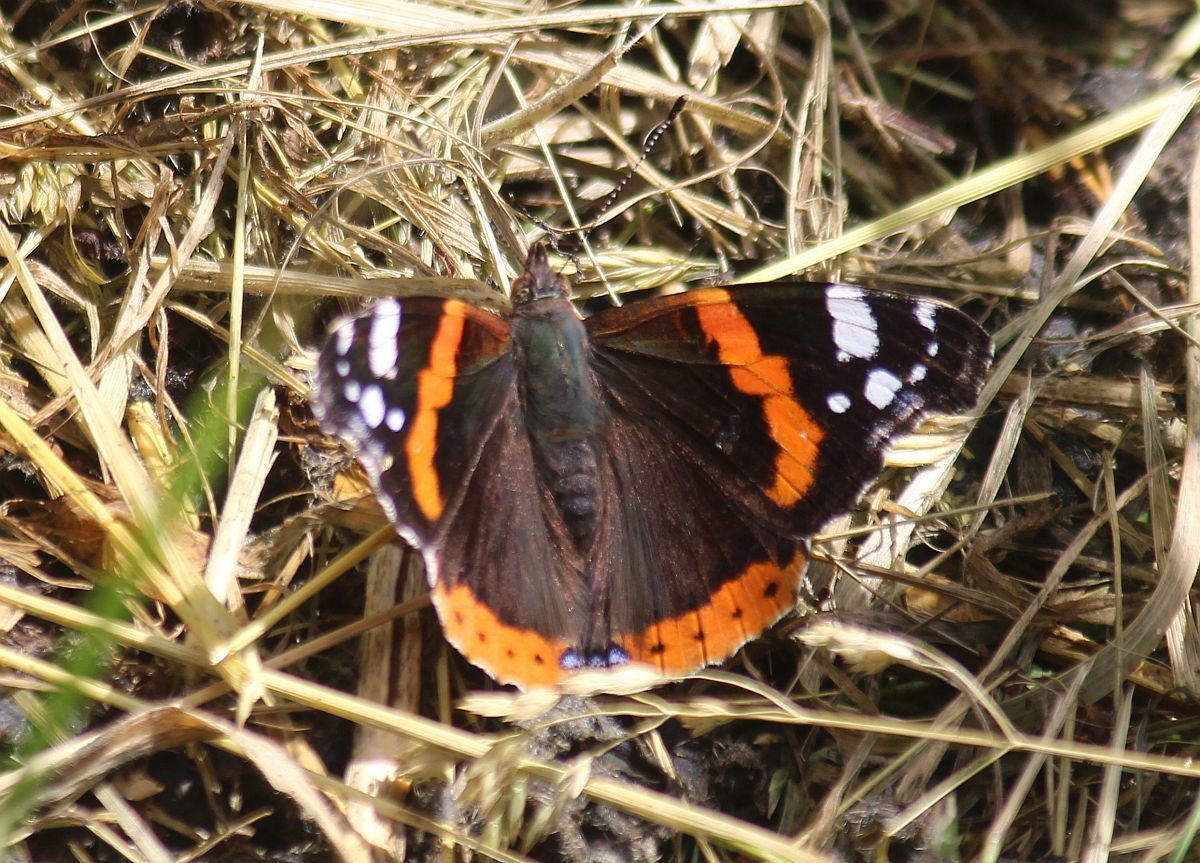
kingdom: Animalia
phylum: Arthropoda
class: Insecta
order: Lepidoptera
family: Nymphalidae
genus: Vanessa
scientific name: Vanessa atalanta
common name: Red admiral
